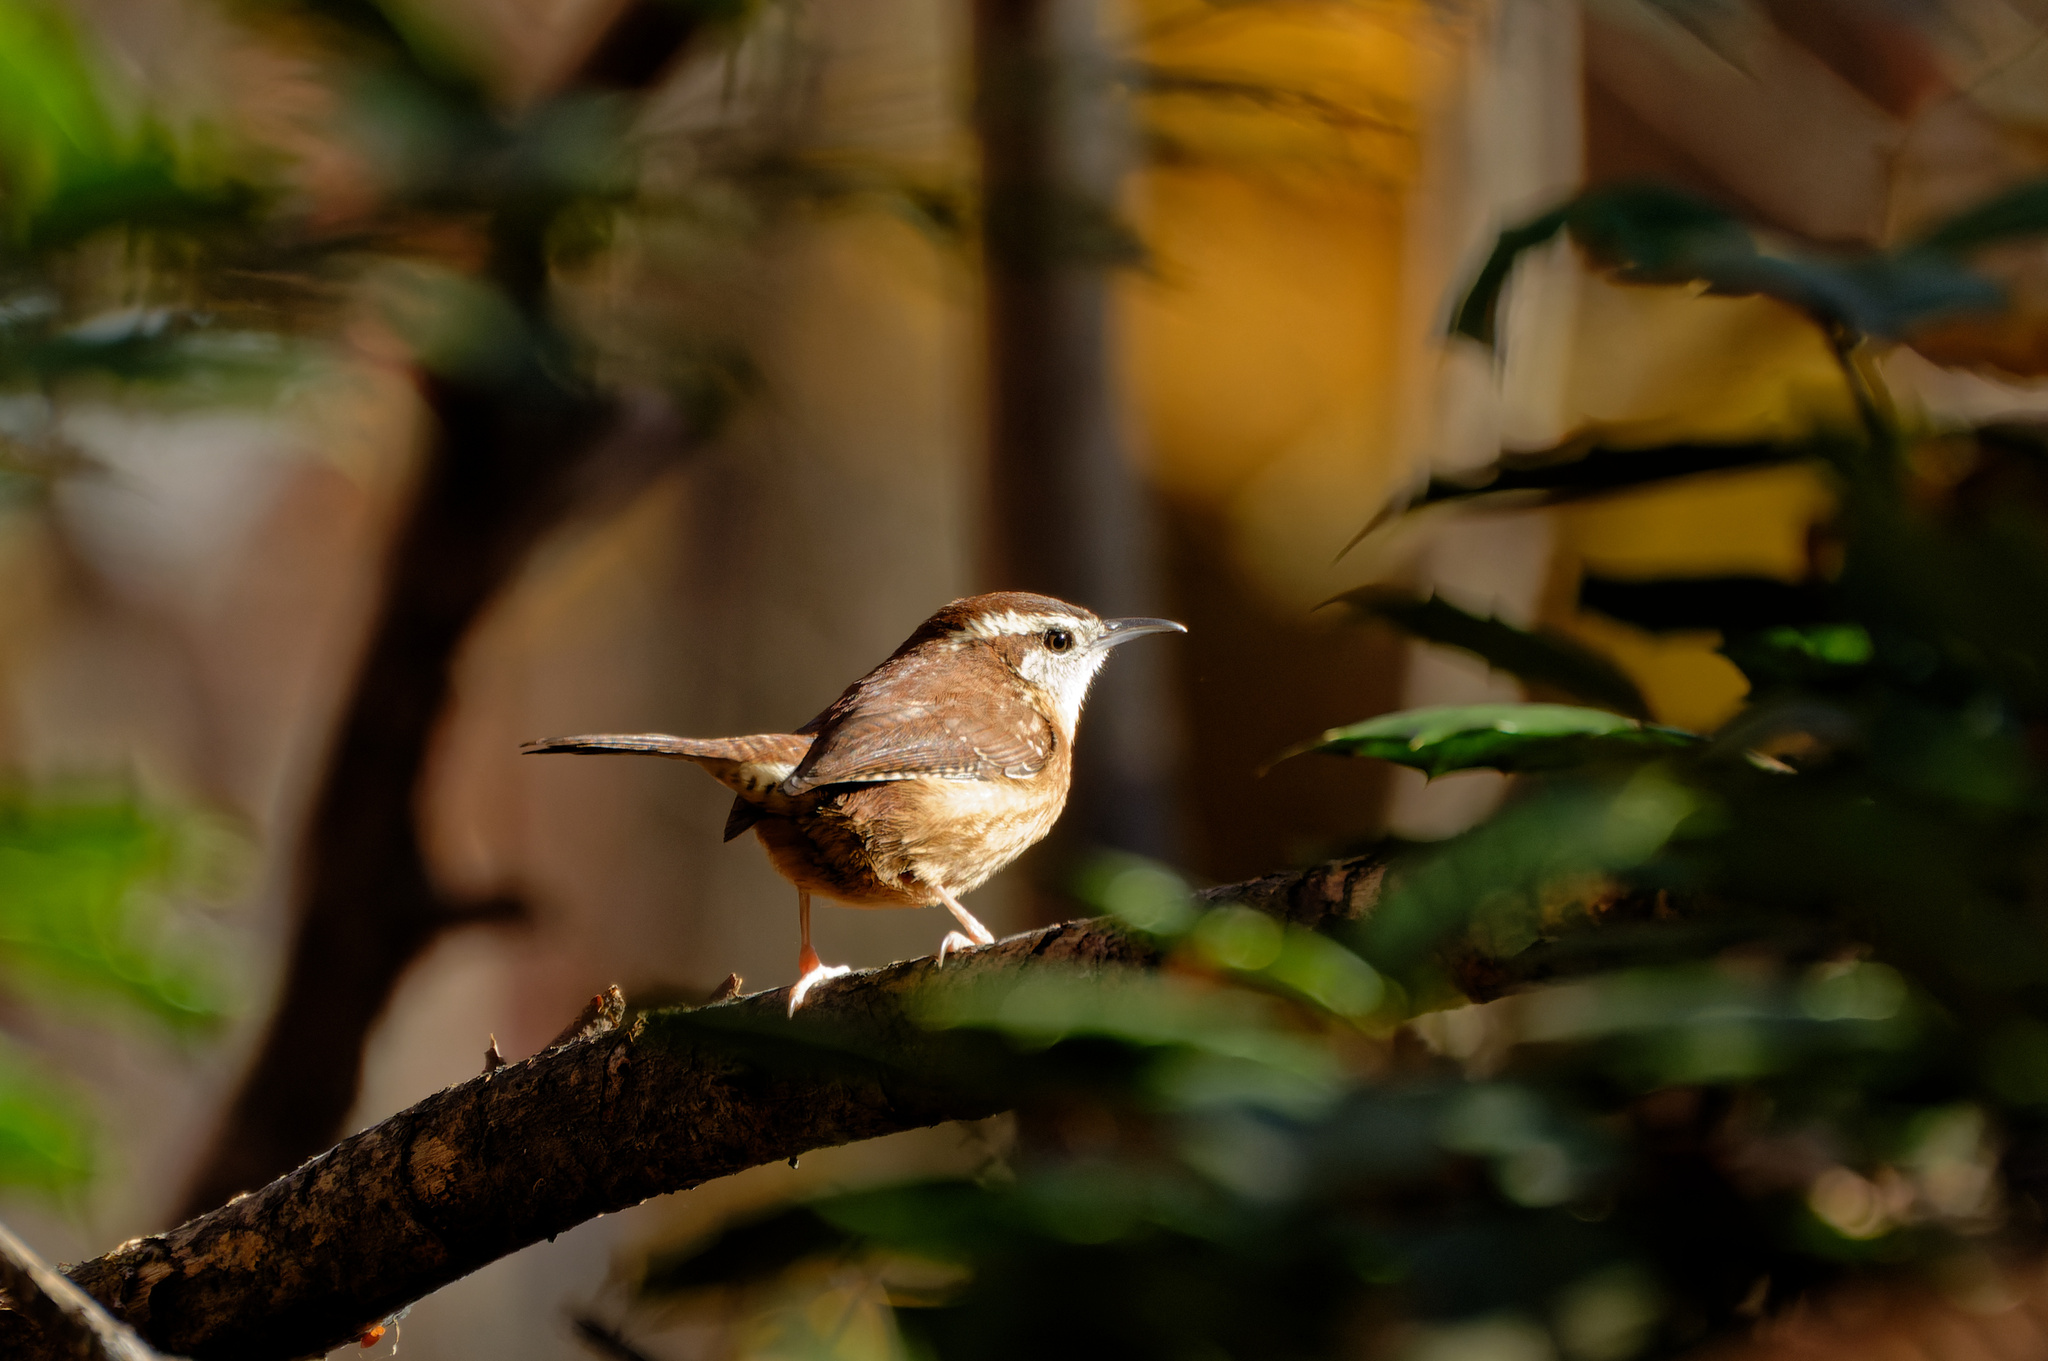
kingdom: Animalia
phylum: Chordata
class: Aves
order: Passeriformes
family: Troglodytidae
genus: Thryothorus
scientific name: Thryothorus ludovicianus
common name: Carolina wren
